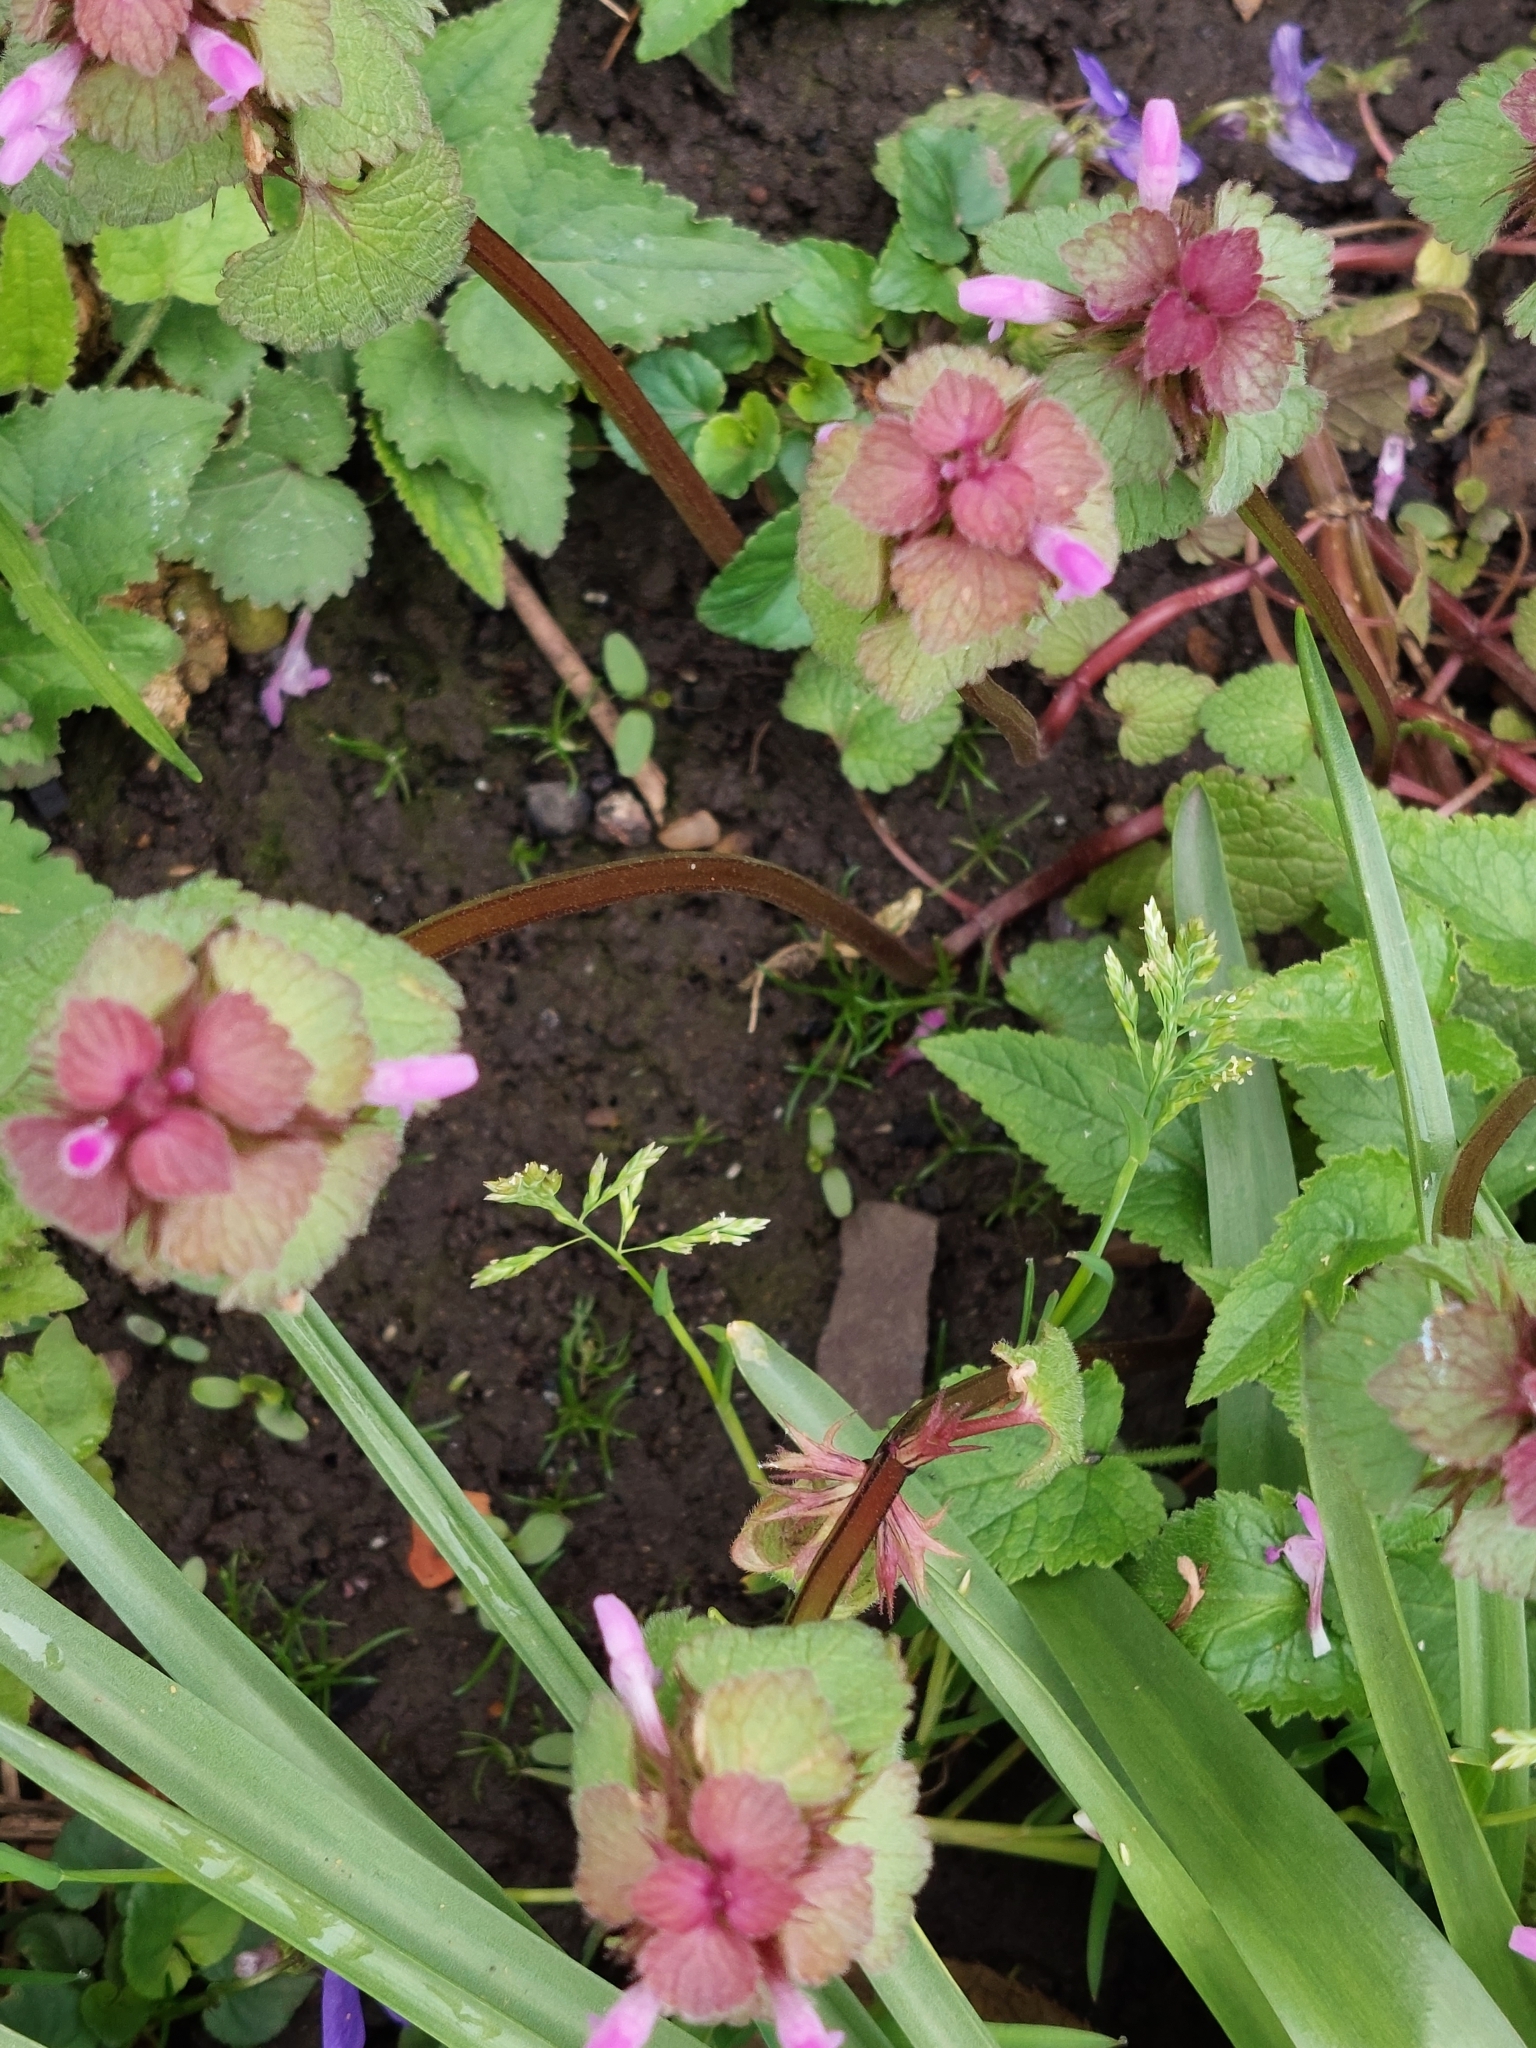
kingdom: Plantae
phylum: Tracheophyta
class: Magnoliopsida
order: Lamiales
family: Lamiaceae
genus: Lamium
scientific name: Lamium purpureum
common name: Red dead-nettle
